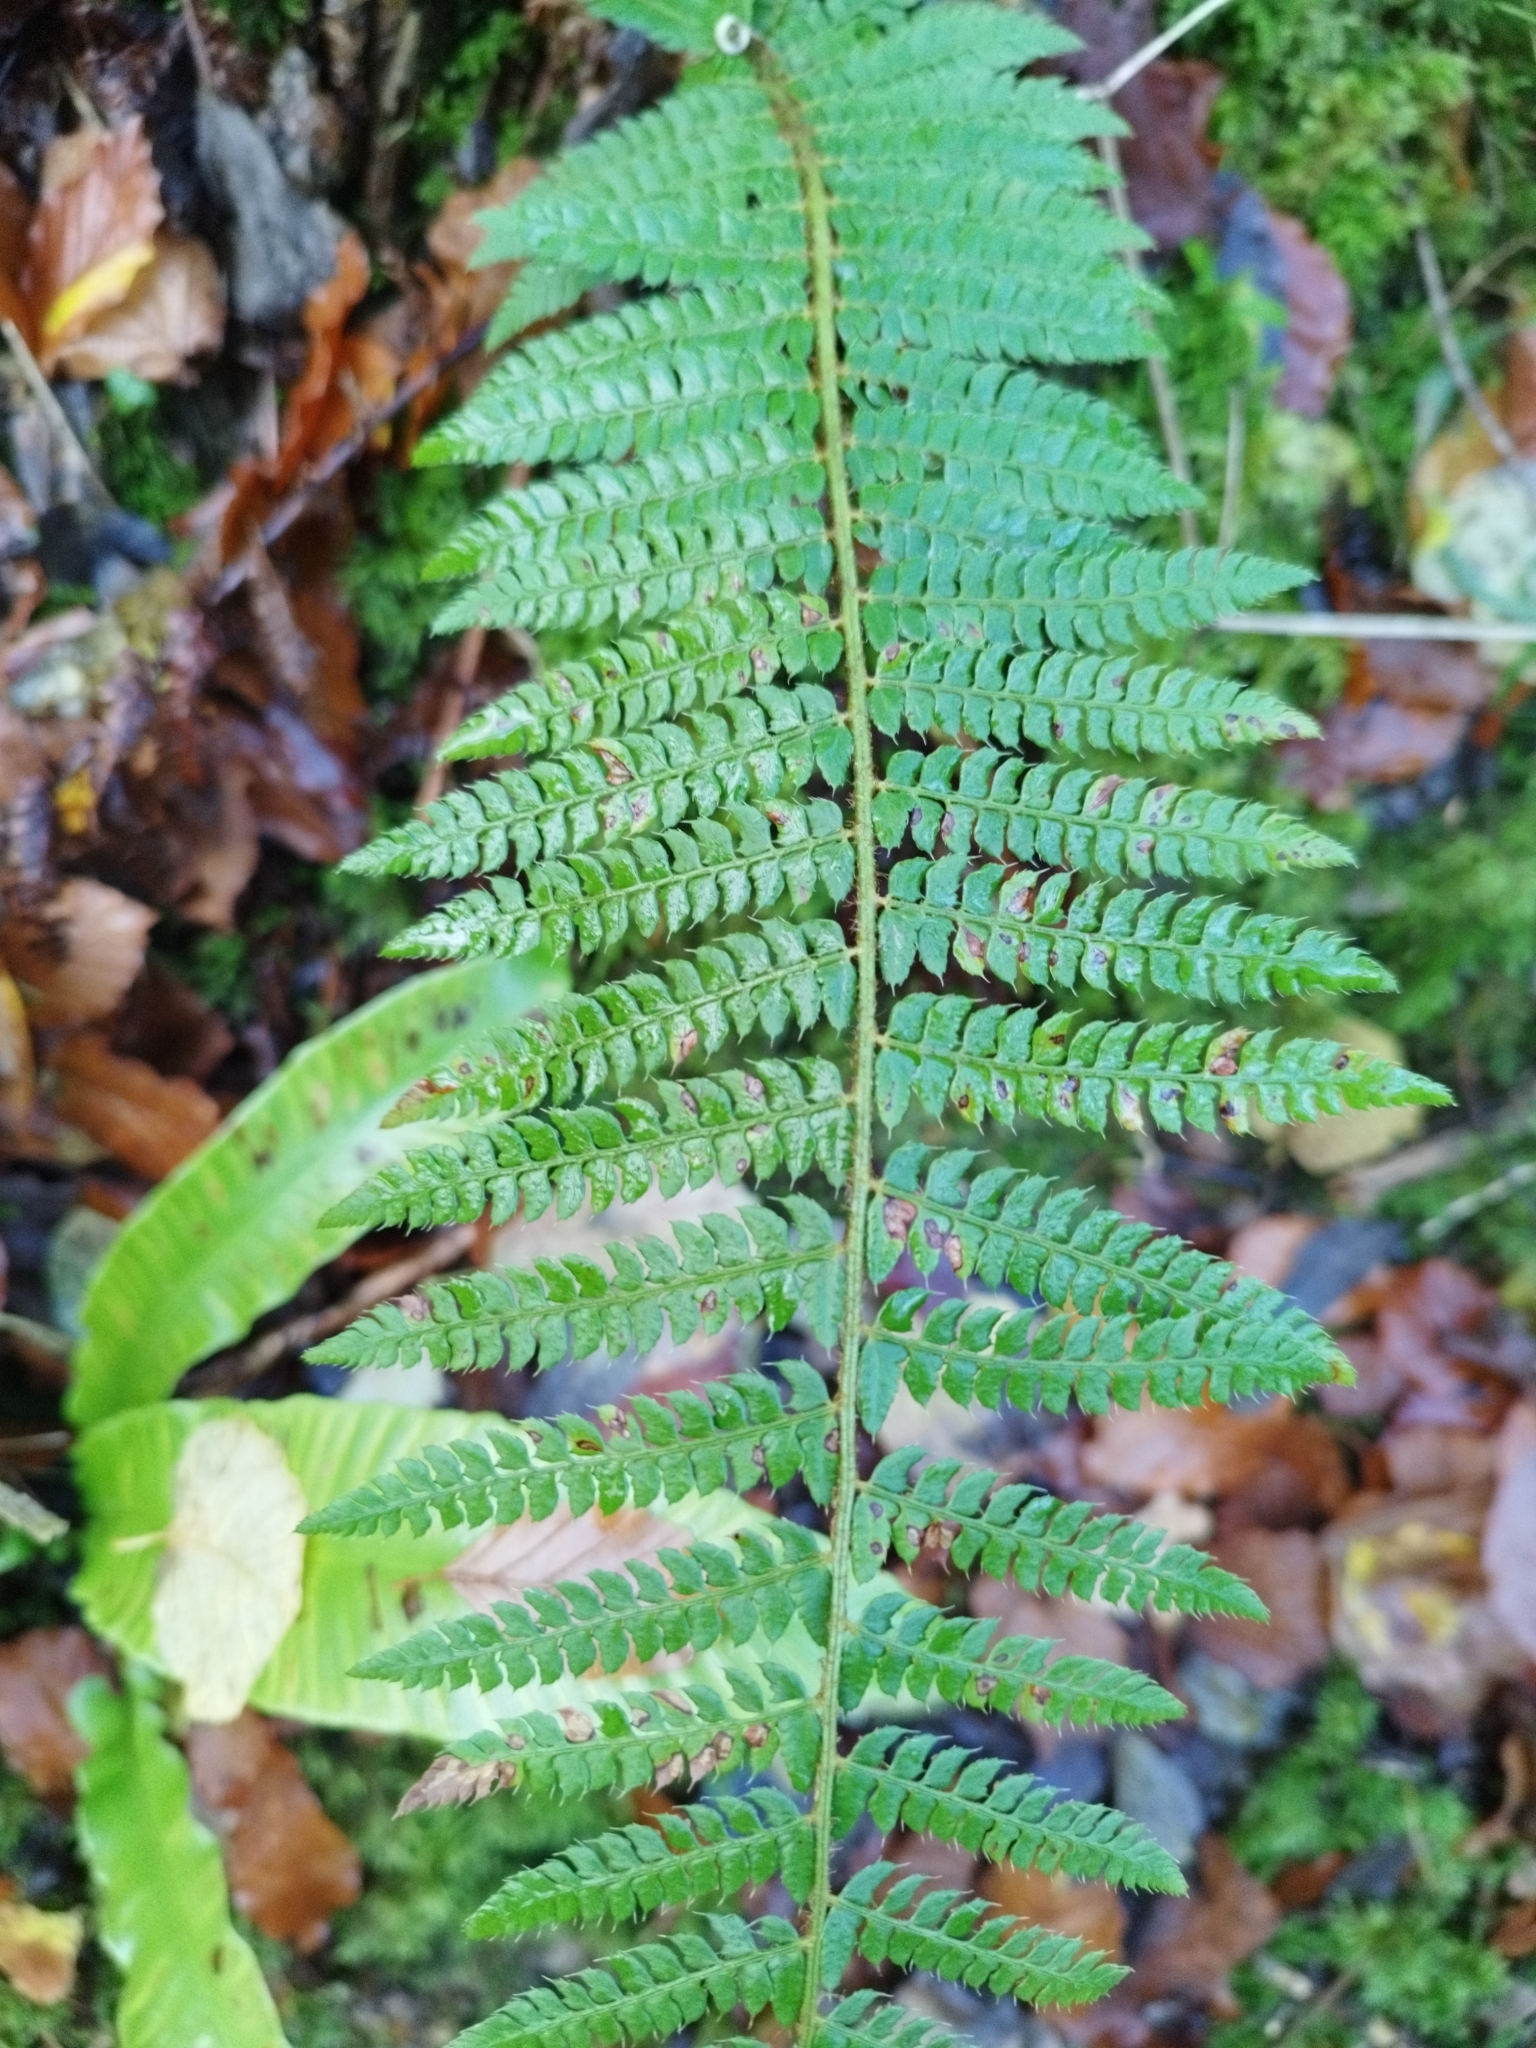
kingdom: Plantae
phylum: Tracheophyta
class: Polypodiopsida
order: Polypodiales
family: Dryopteridaceae
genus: Polystichum
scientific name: Polystichum setiferum
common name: Soft shield-fern
